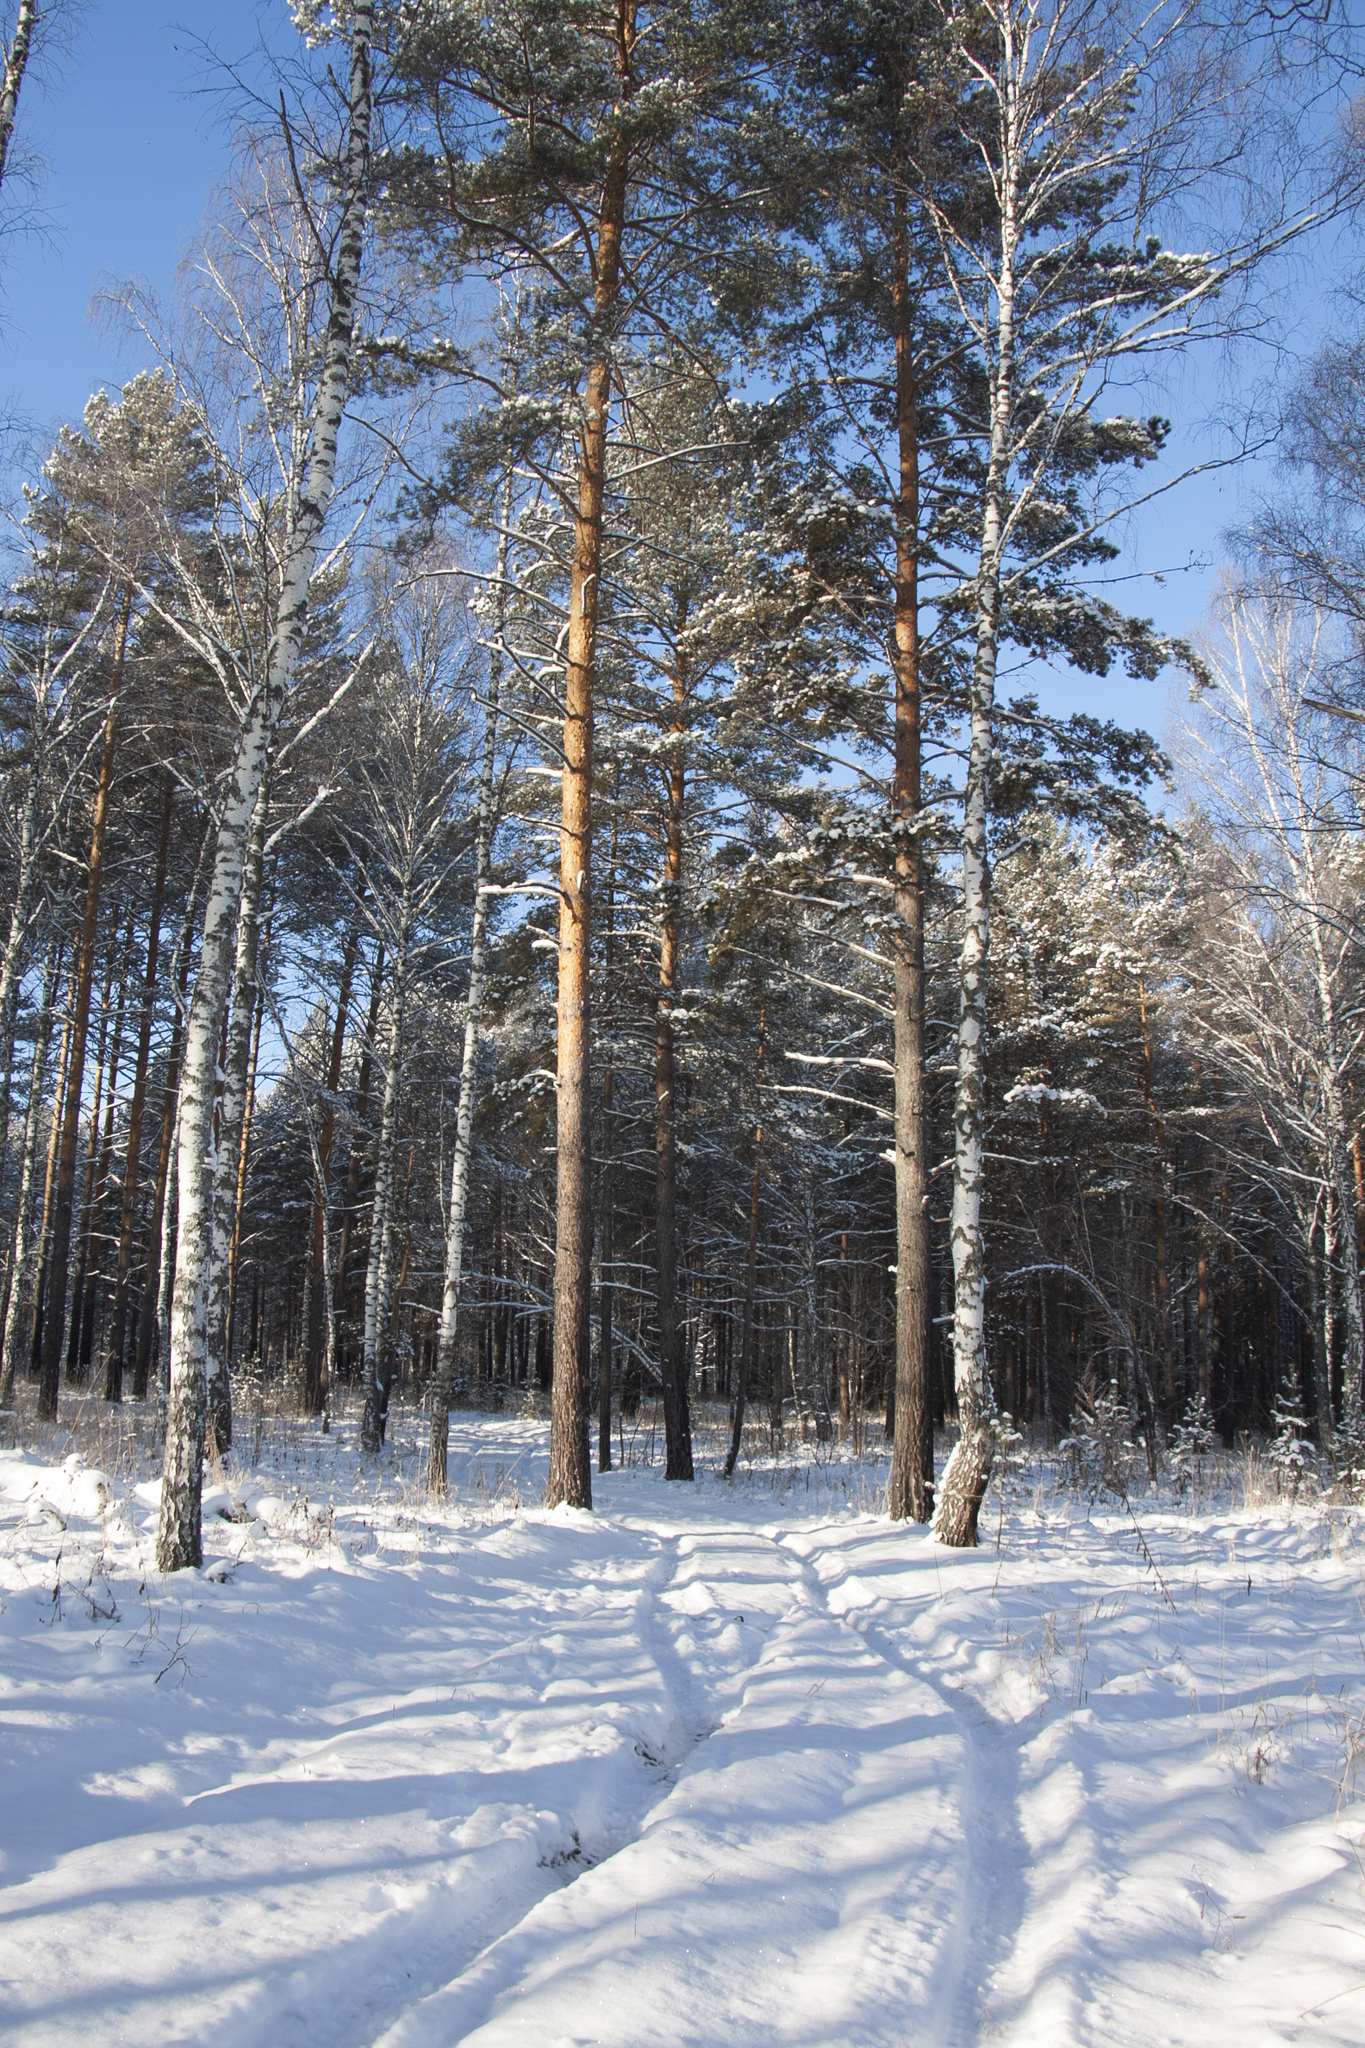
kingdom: Plantae
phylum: Tracheophyta
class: Pinopsida
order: Pinales
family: Pinaceae
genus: Pinus
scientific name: Pinus sylvestris
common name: Scots pine
